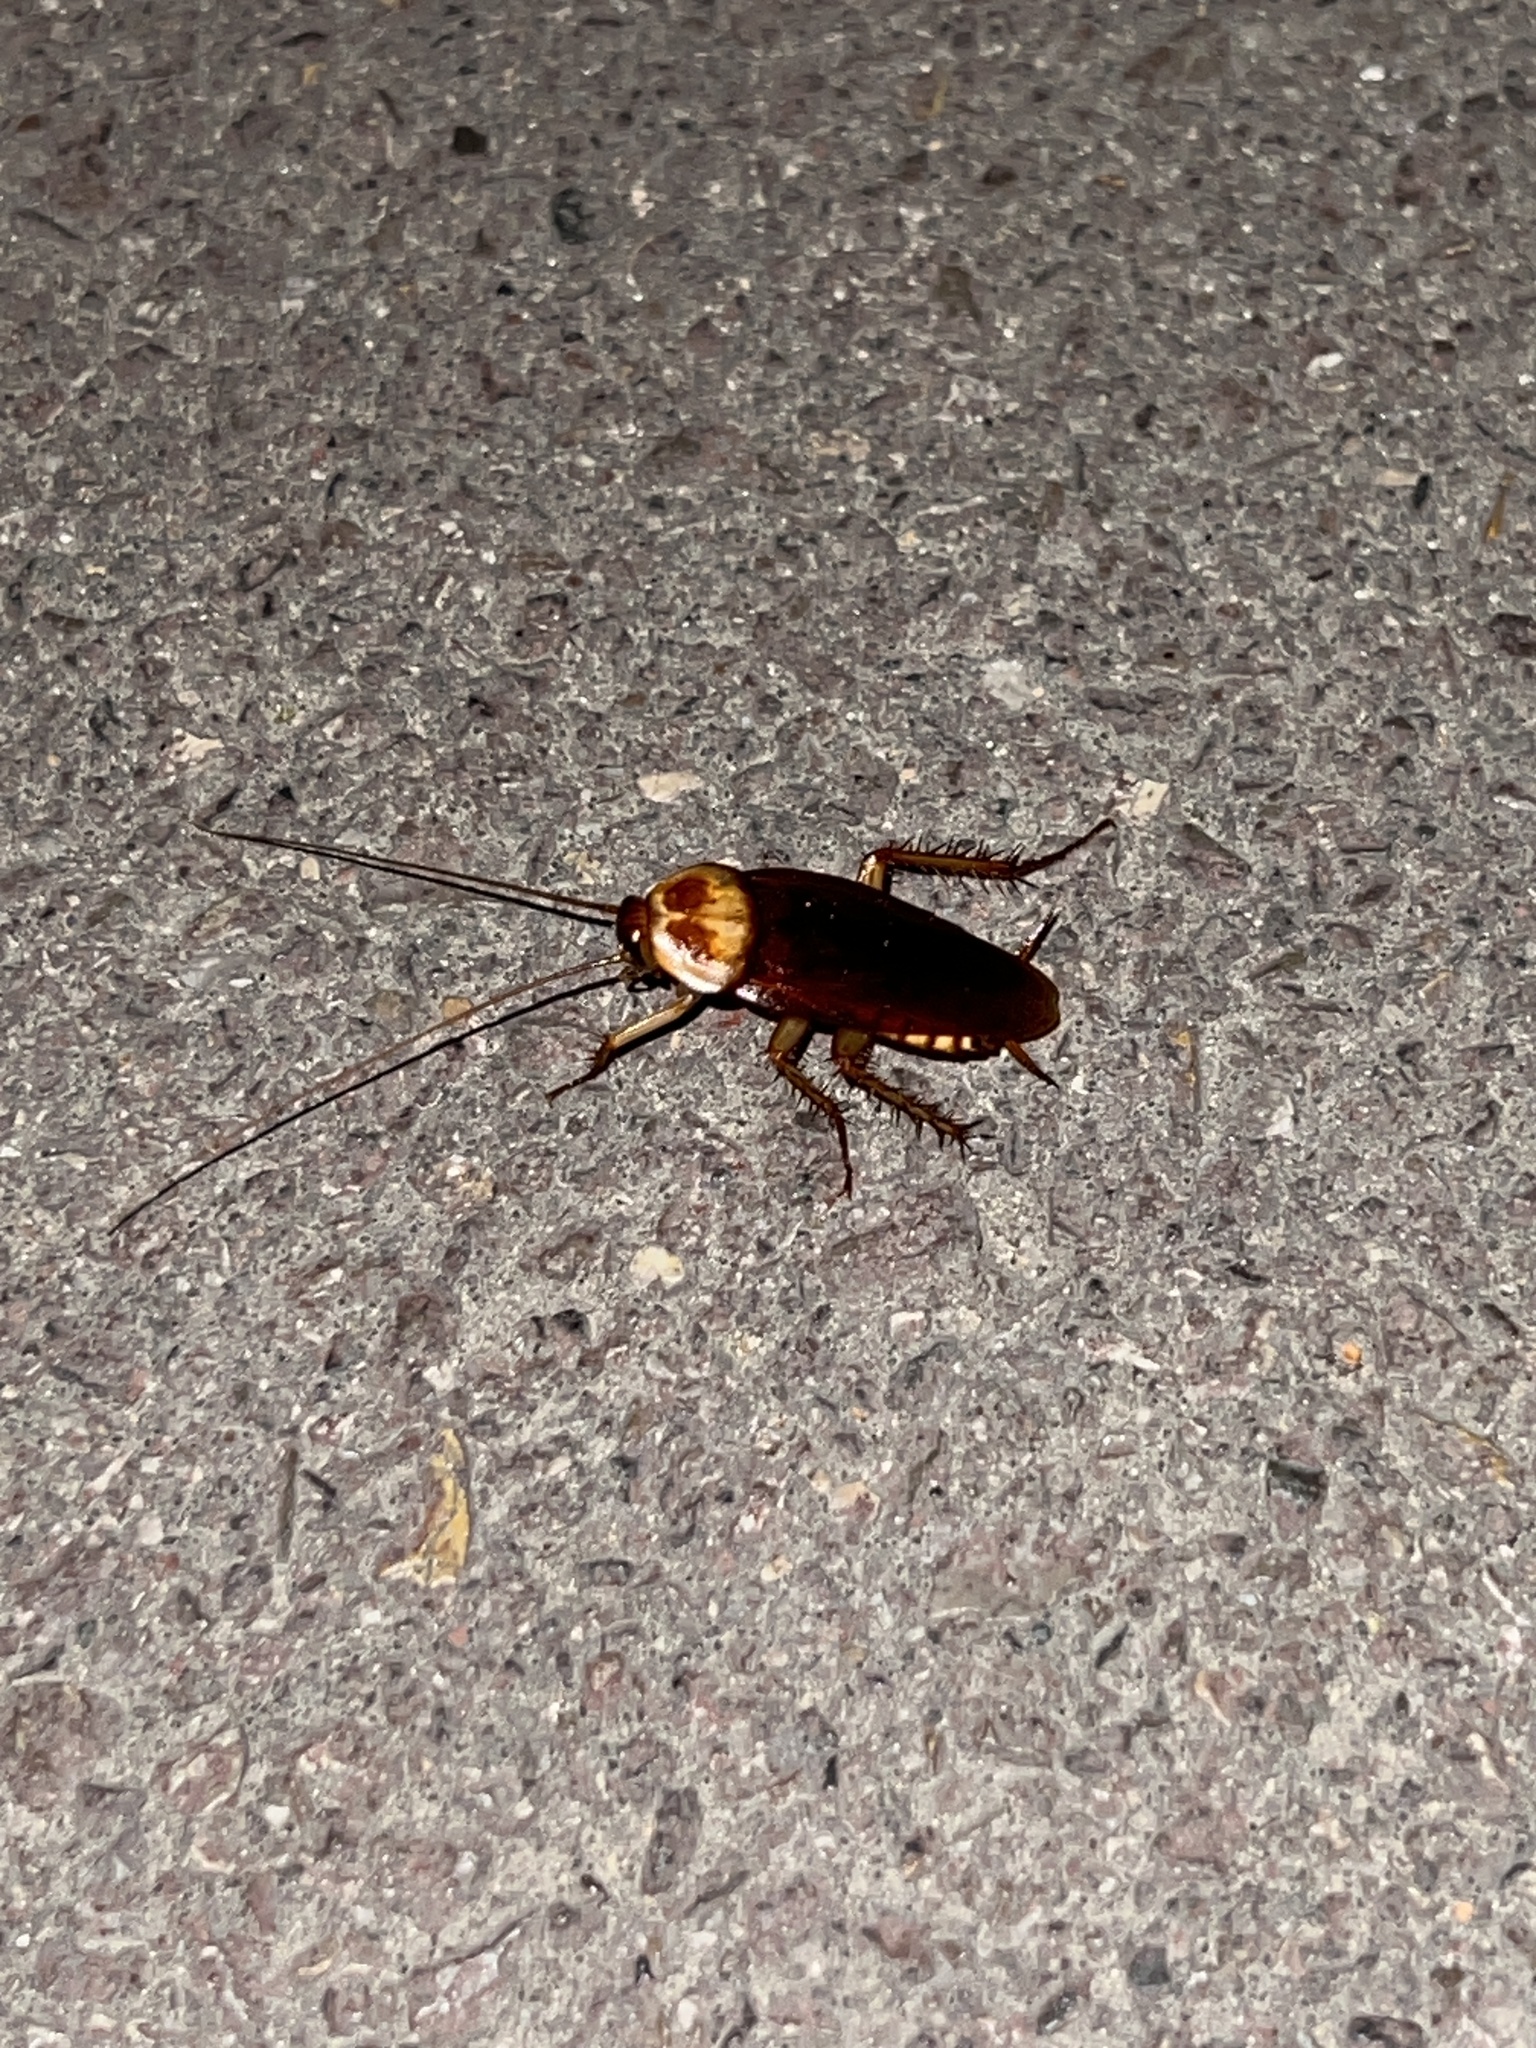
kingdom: Animalia
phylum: Arthropoda
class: Insecta
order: Blattodea
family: Blattidae
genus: Periplaneta
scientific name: Periplaneta americana
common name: American cockroach
